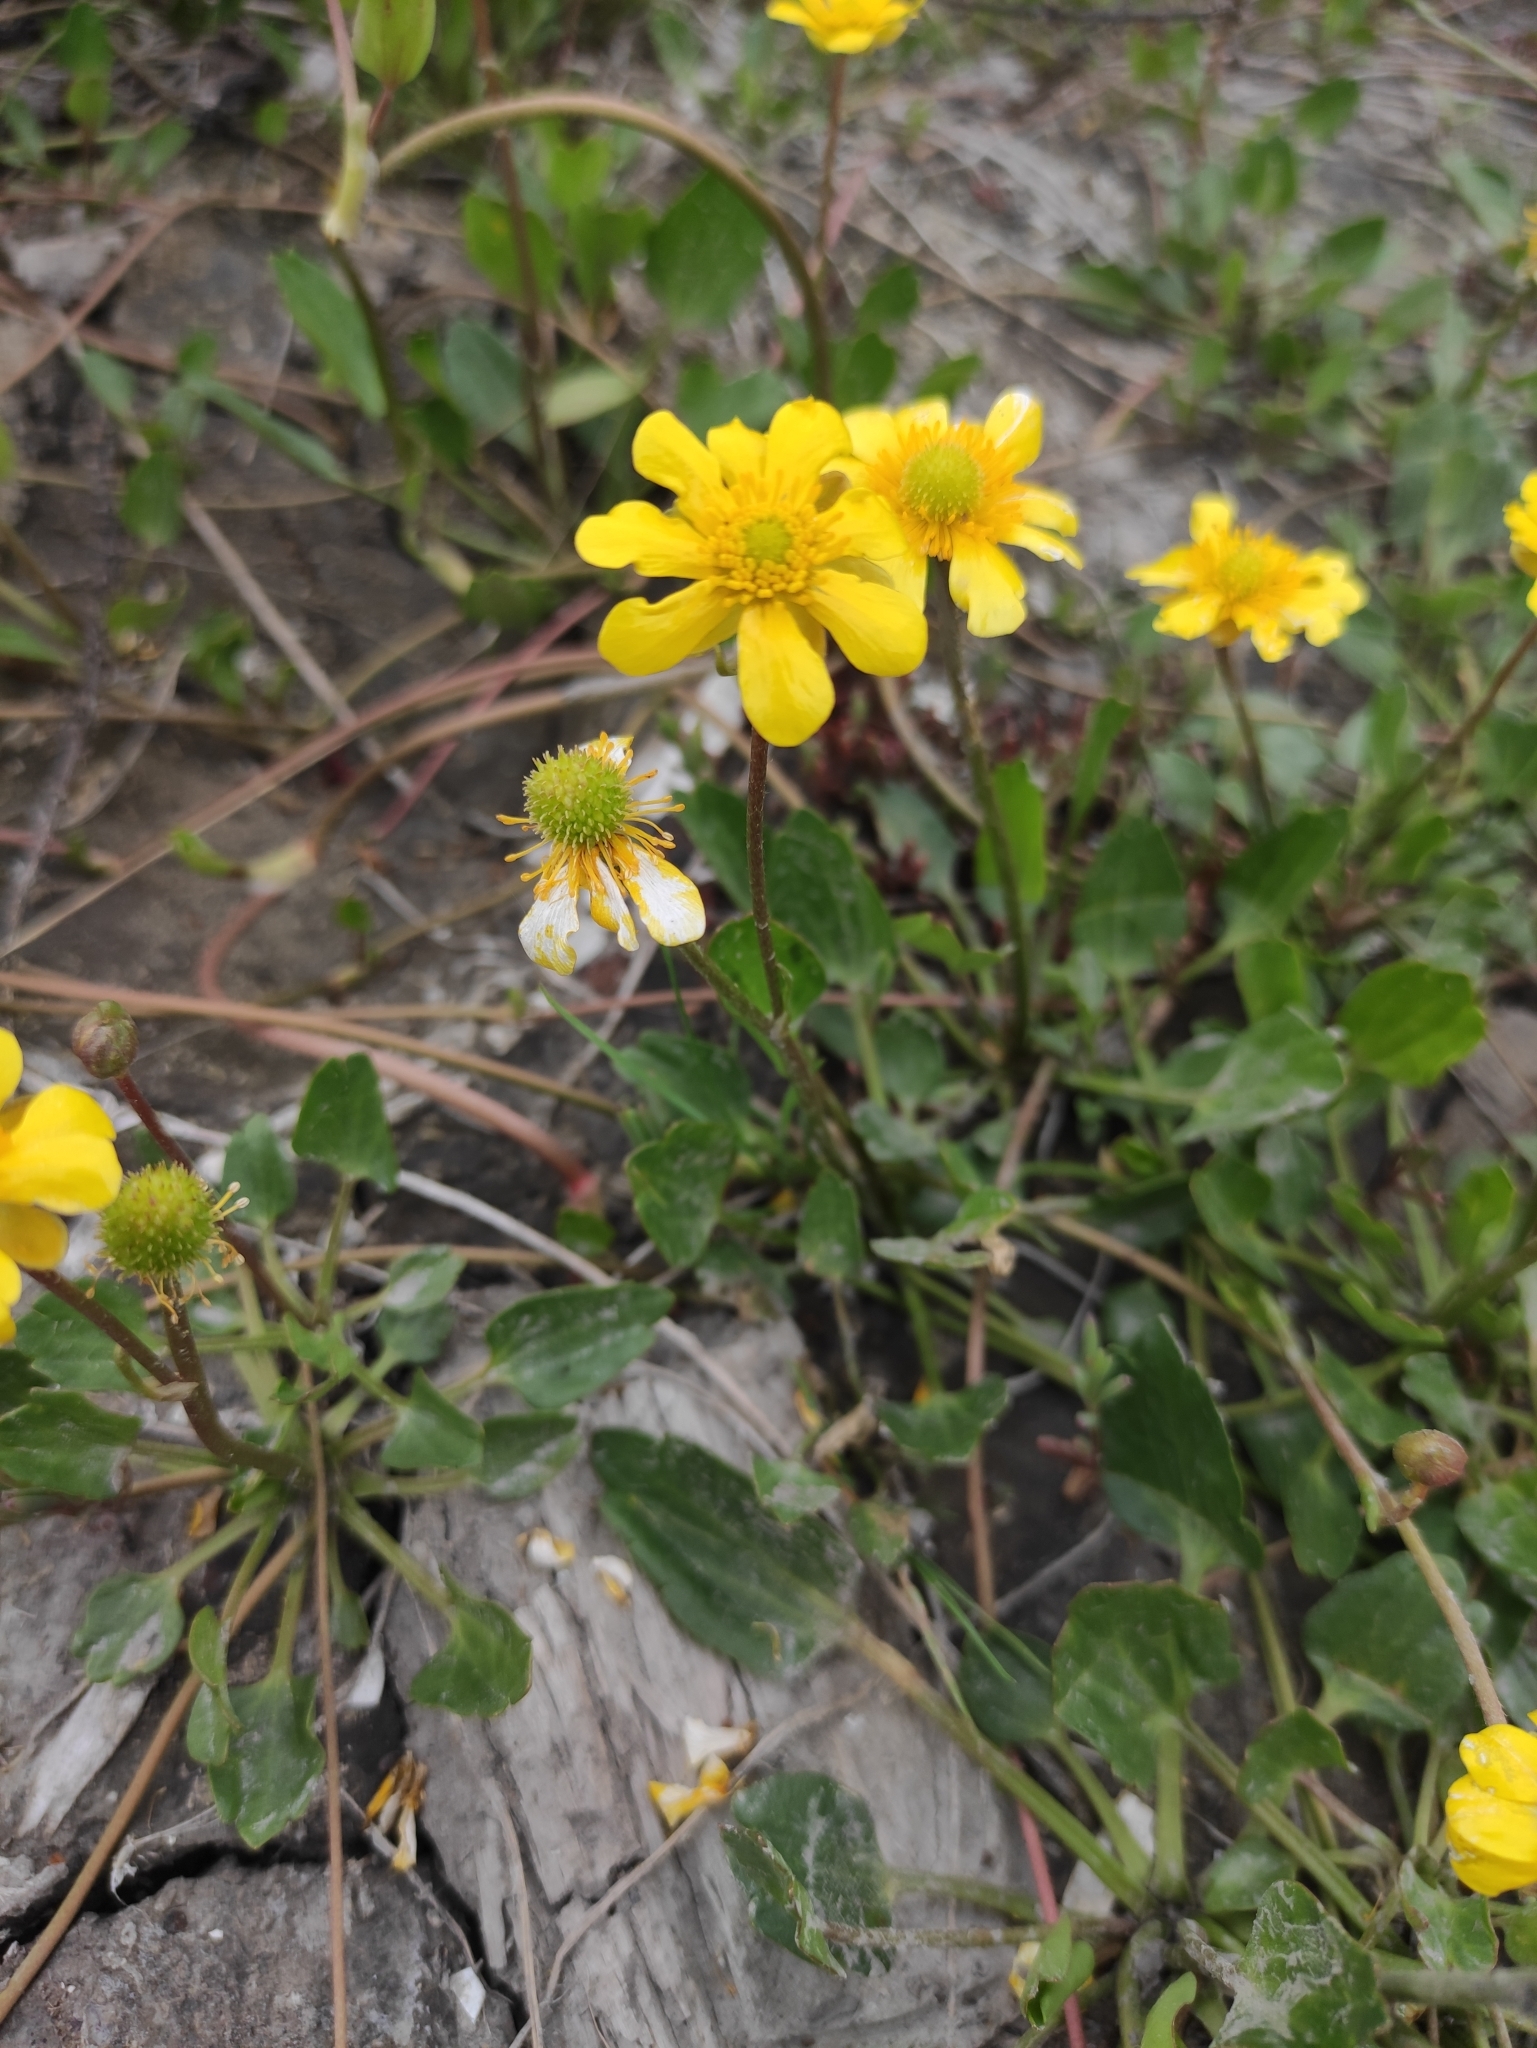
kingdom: Plantae
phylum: Tracheophyta
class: Magnoliopsida
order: Ranunculales
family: Ranunculaceae
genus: Halerpestes
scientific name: Halerpestes ruthenica
